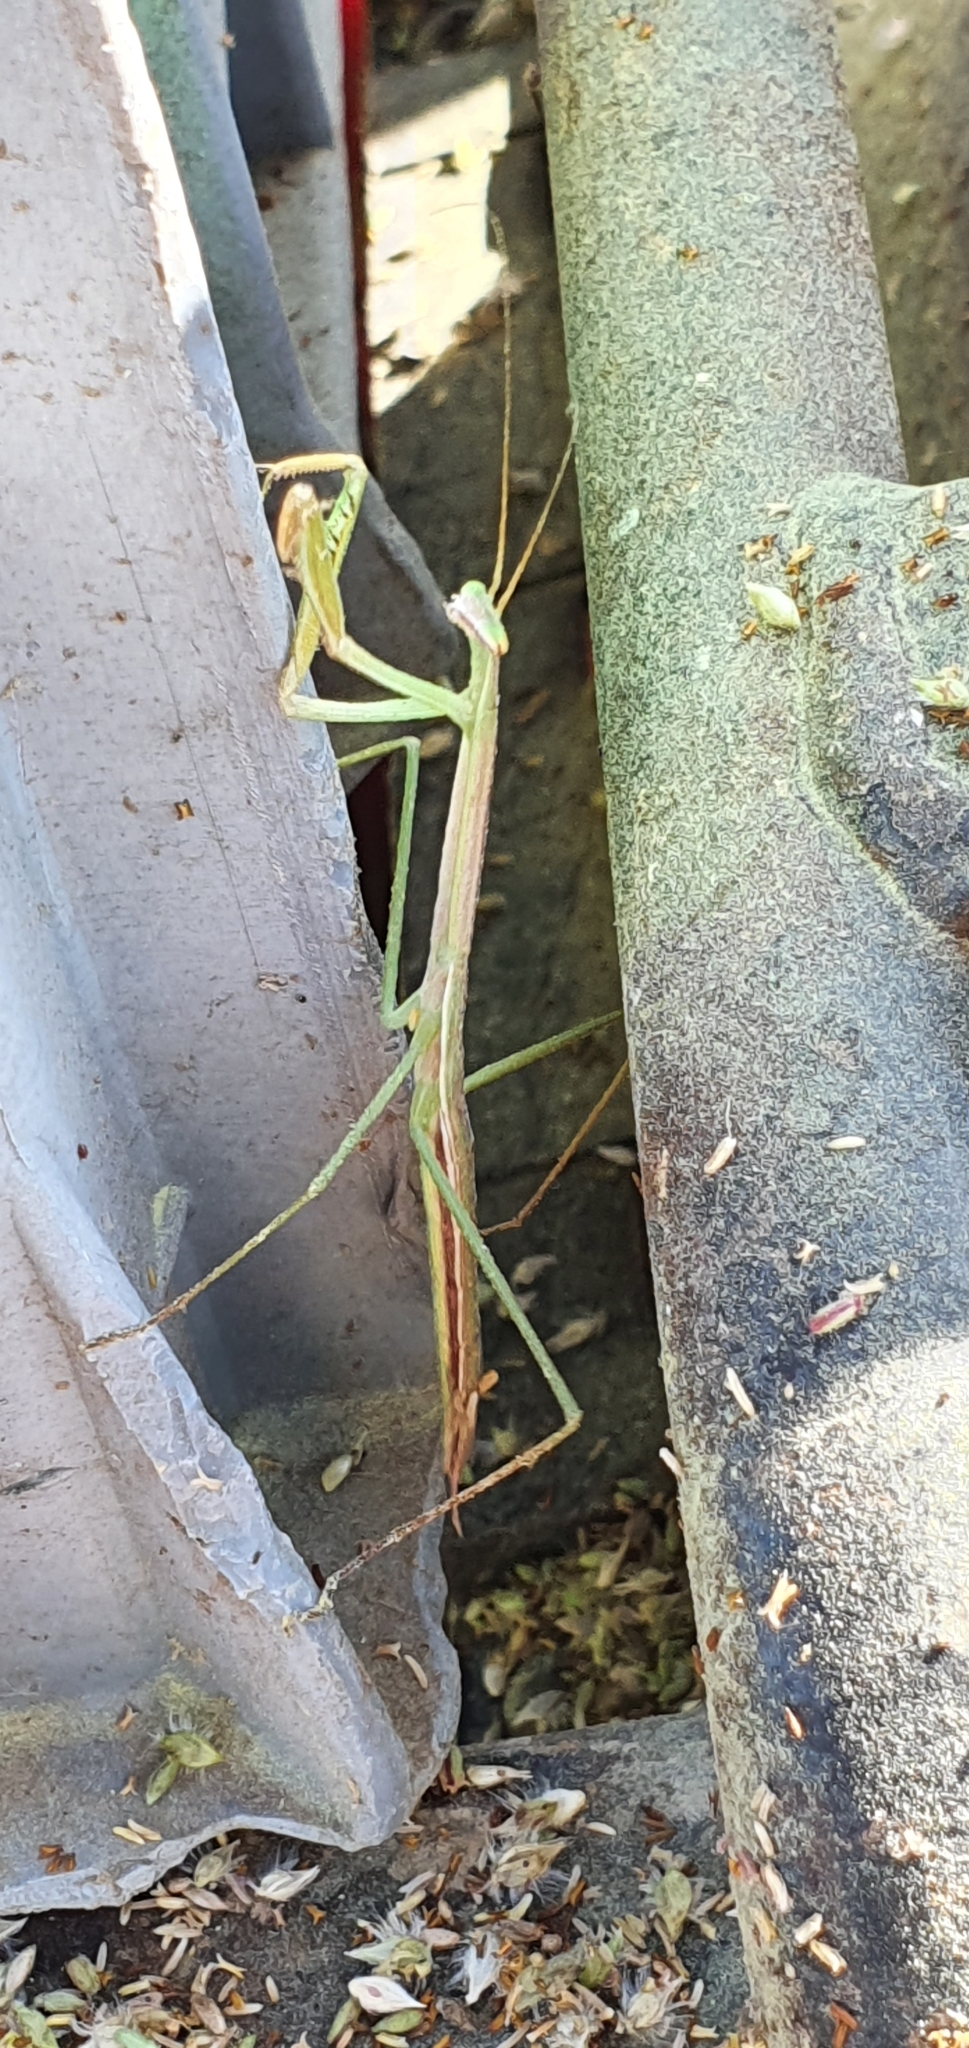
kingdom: Animalia
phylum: Arthropoda
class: Insecta
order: Mantodea
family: Mantidae
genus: Tenodera
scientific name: Tenodera
